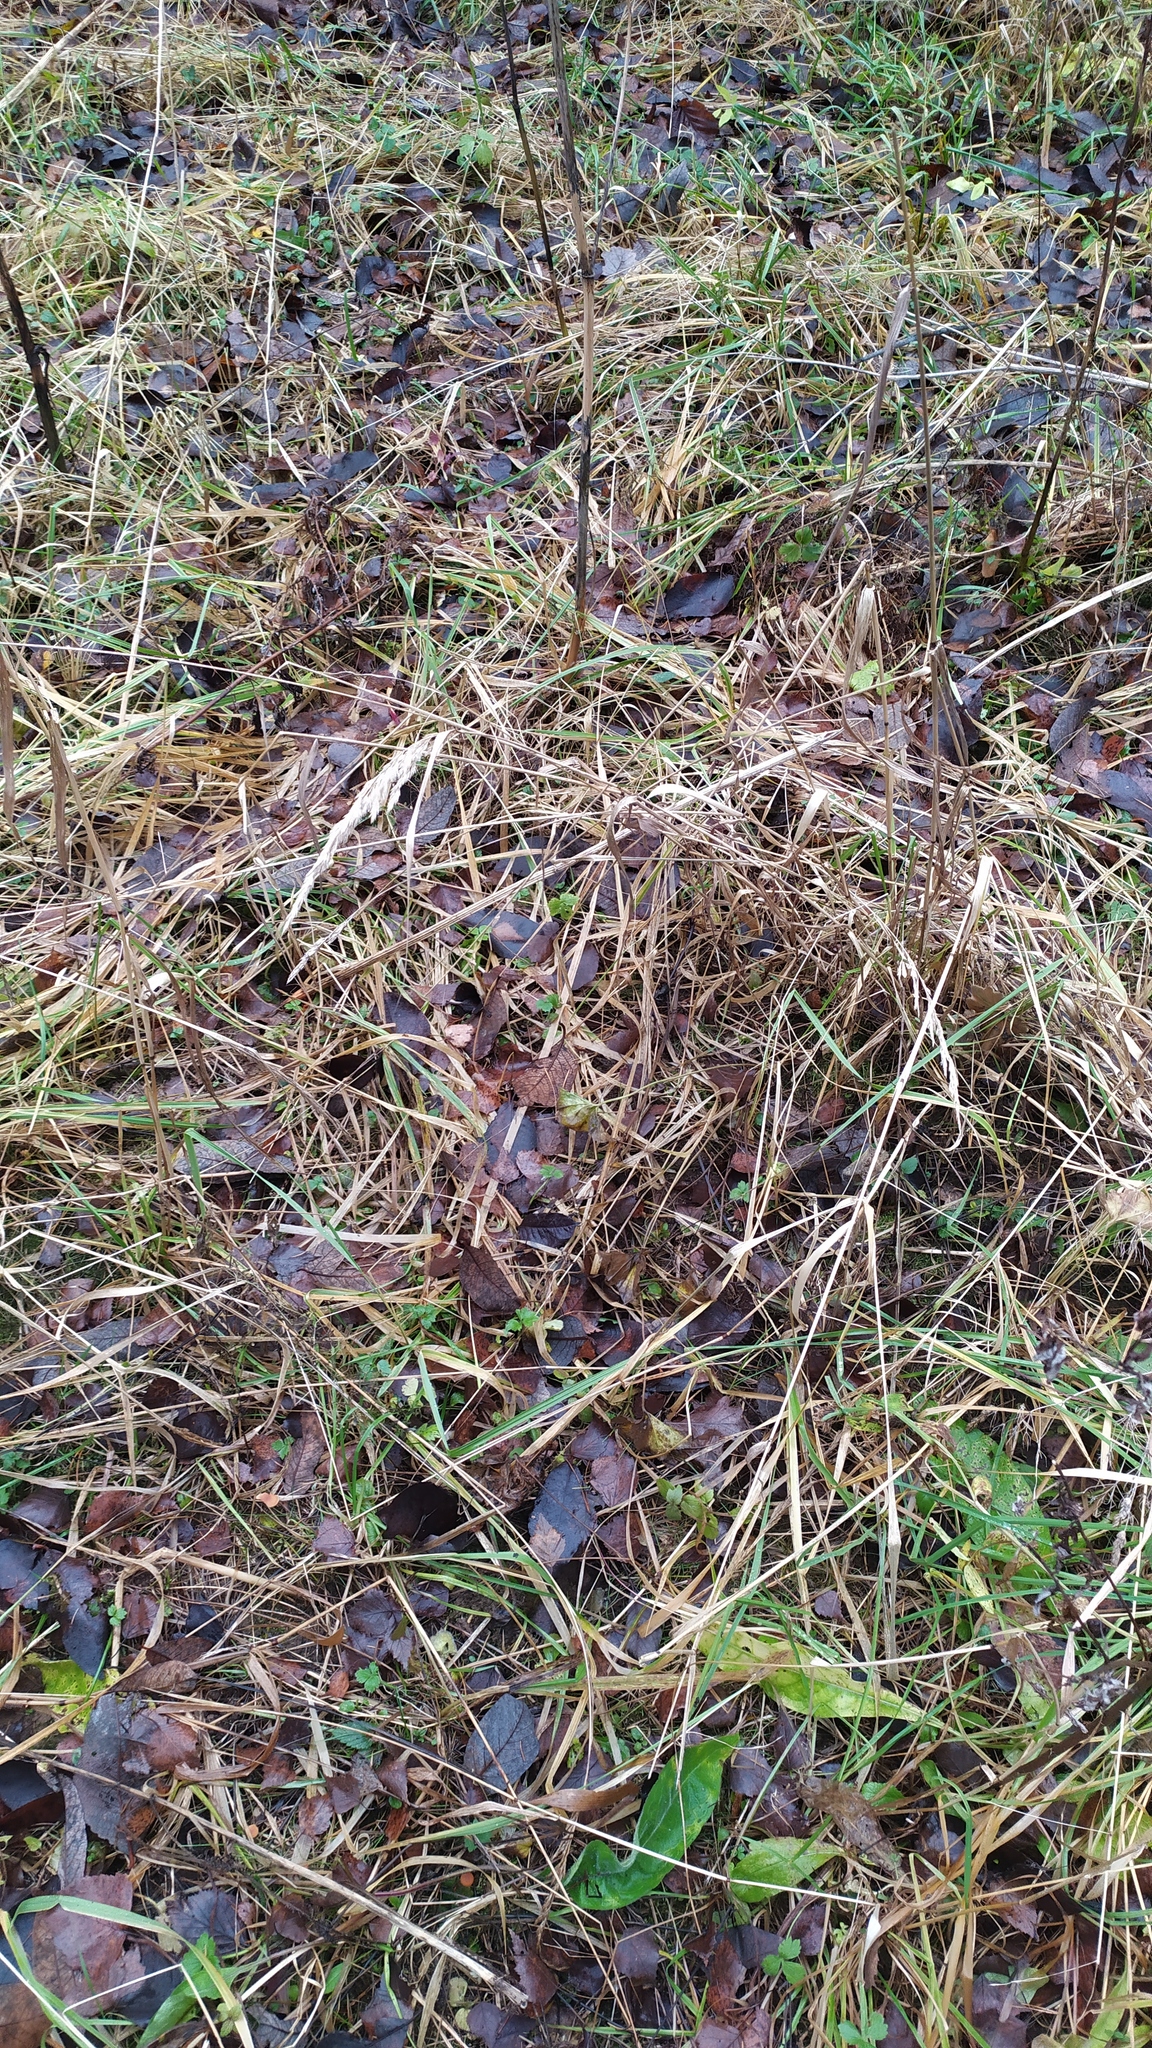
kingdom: Plantae
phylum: Tracheophyta
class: Liliopsida
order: Poales
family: Poaceae
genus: Calamagrostis
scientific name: Calamagrostis epigejos
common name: Wood small-reed
